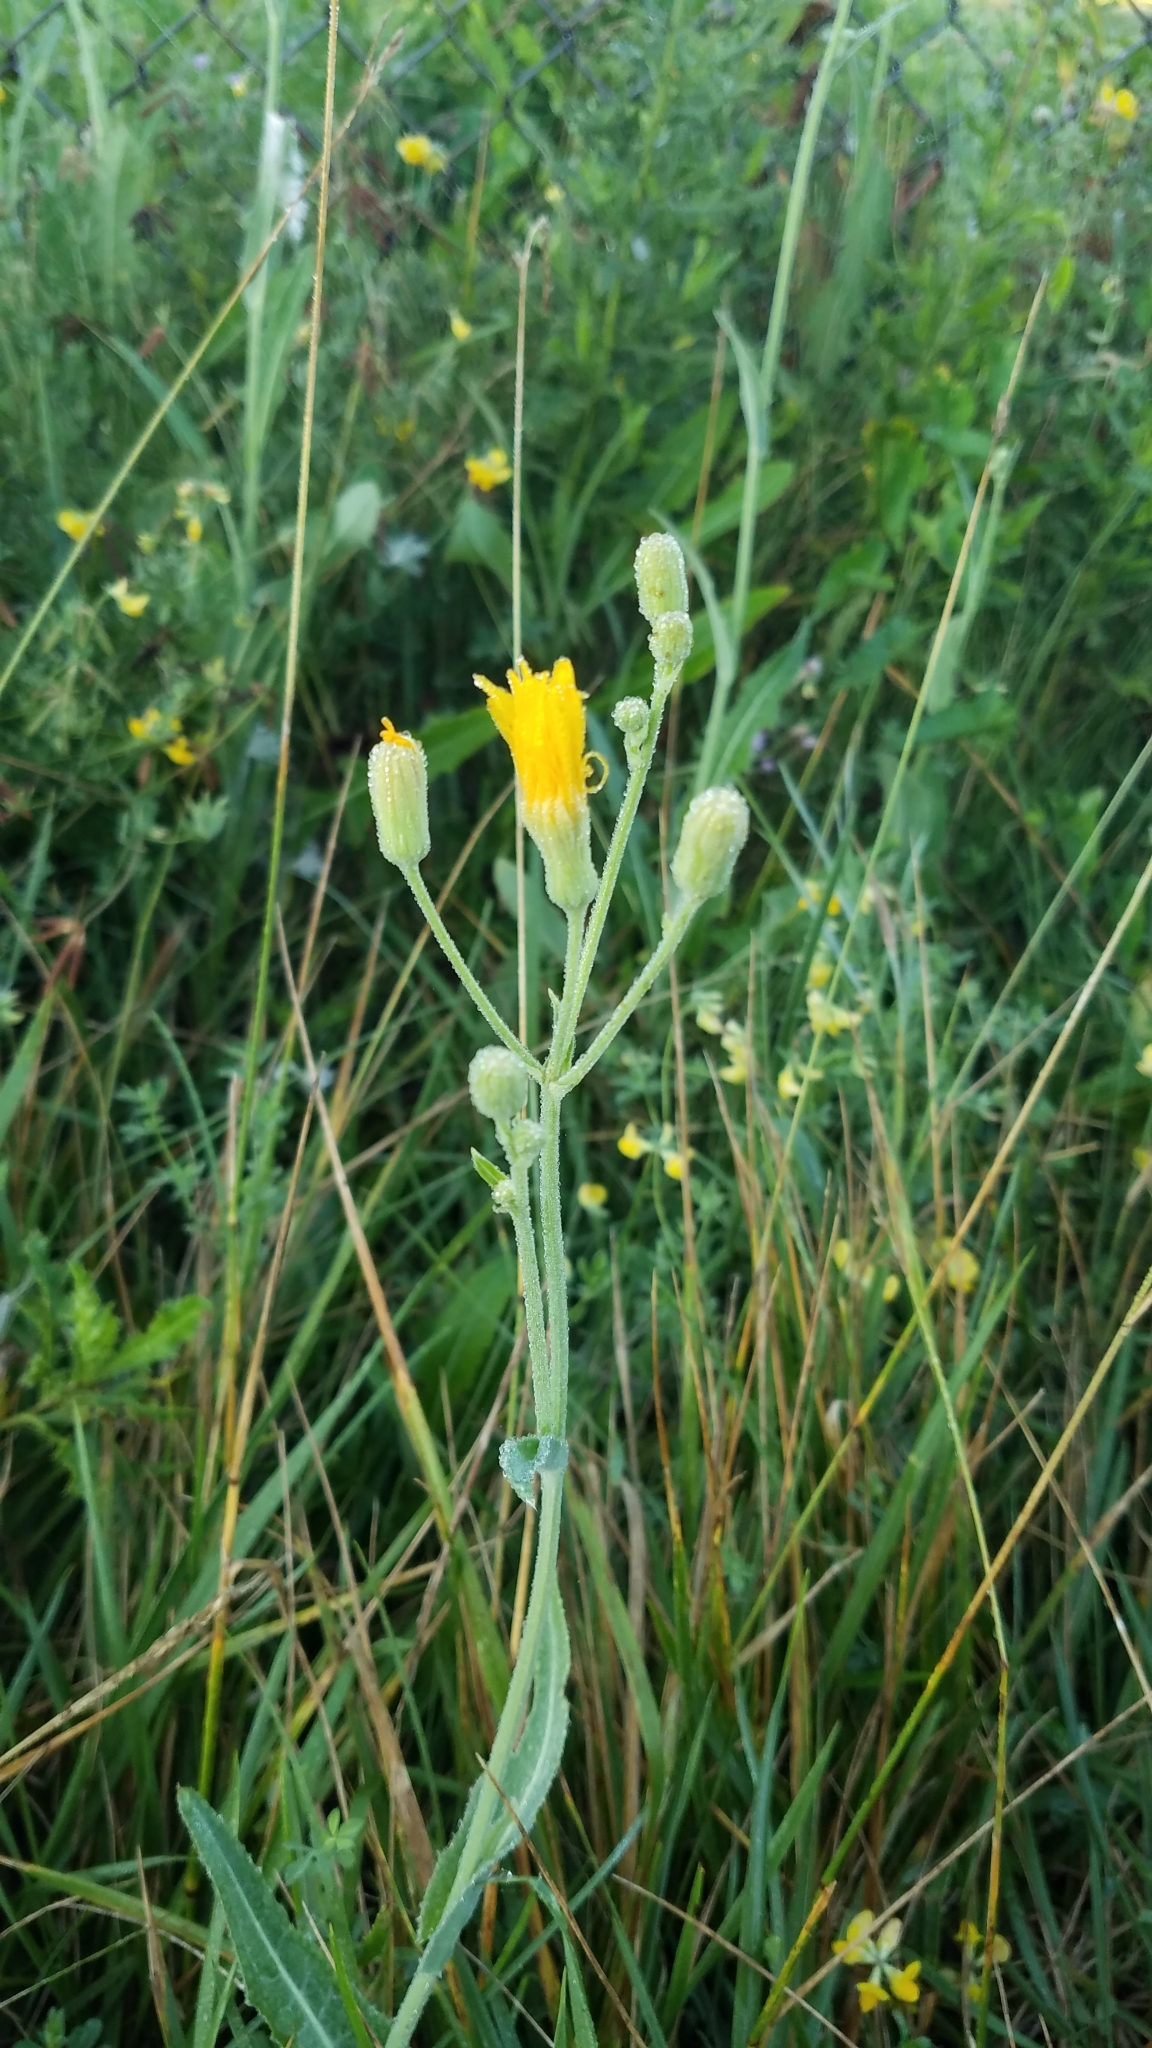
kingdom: Plantae
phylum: Tracheophyta
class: Magnoliopsida
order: Asterales
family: Asteraceae
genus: Sonchus
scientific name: Sonchus arvensis
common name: Perennial sow-thistle
